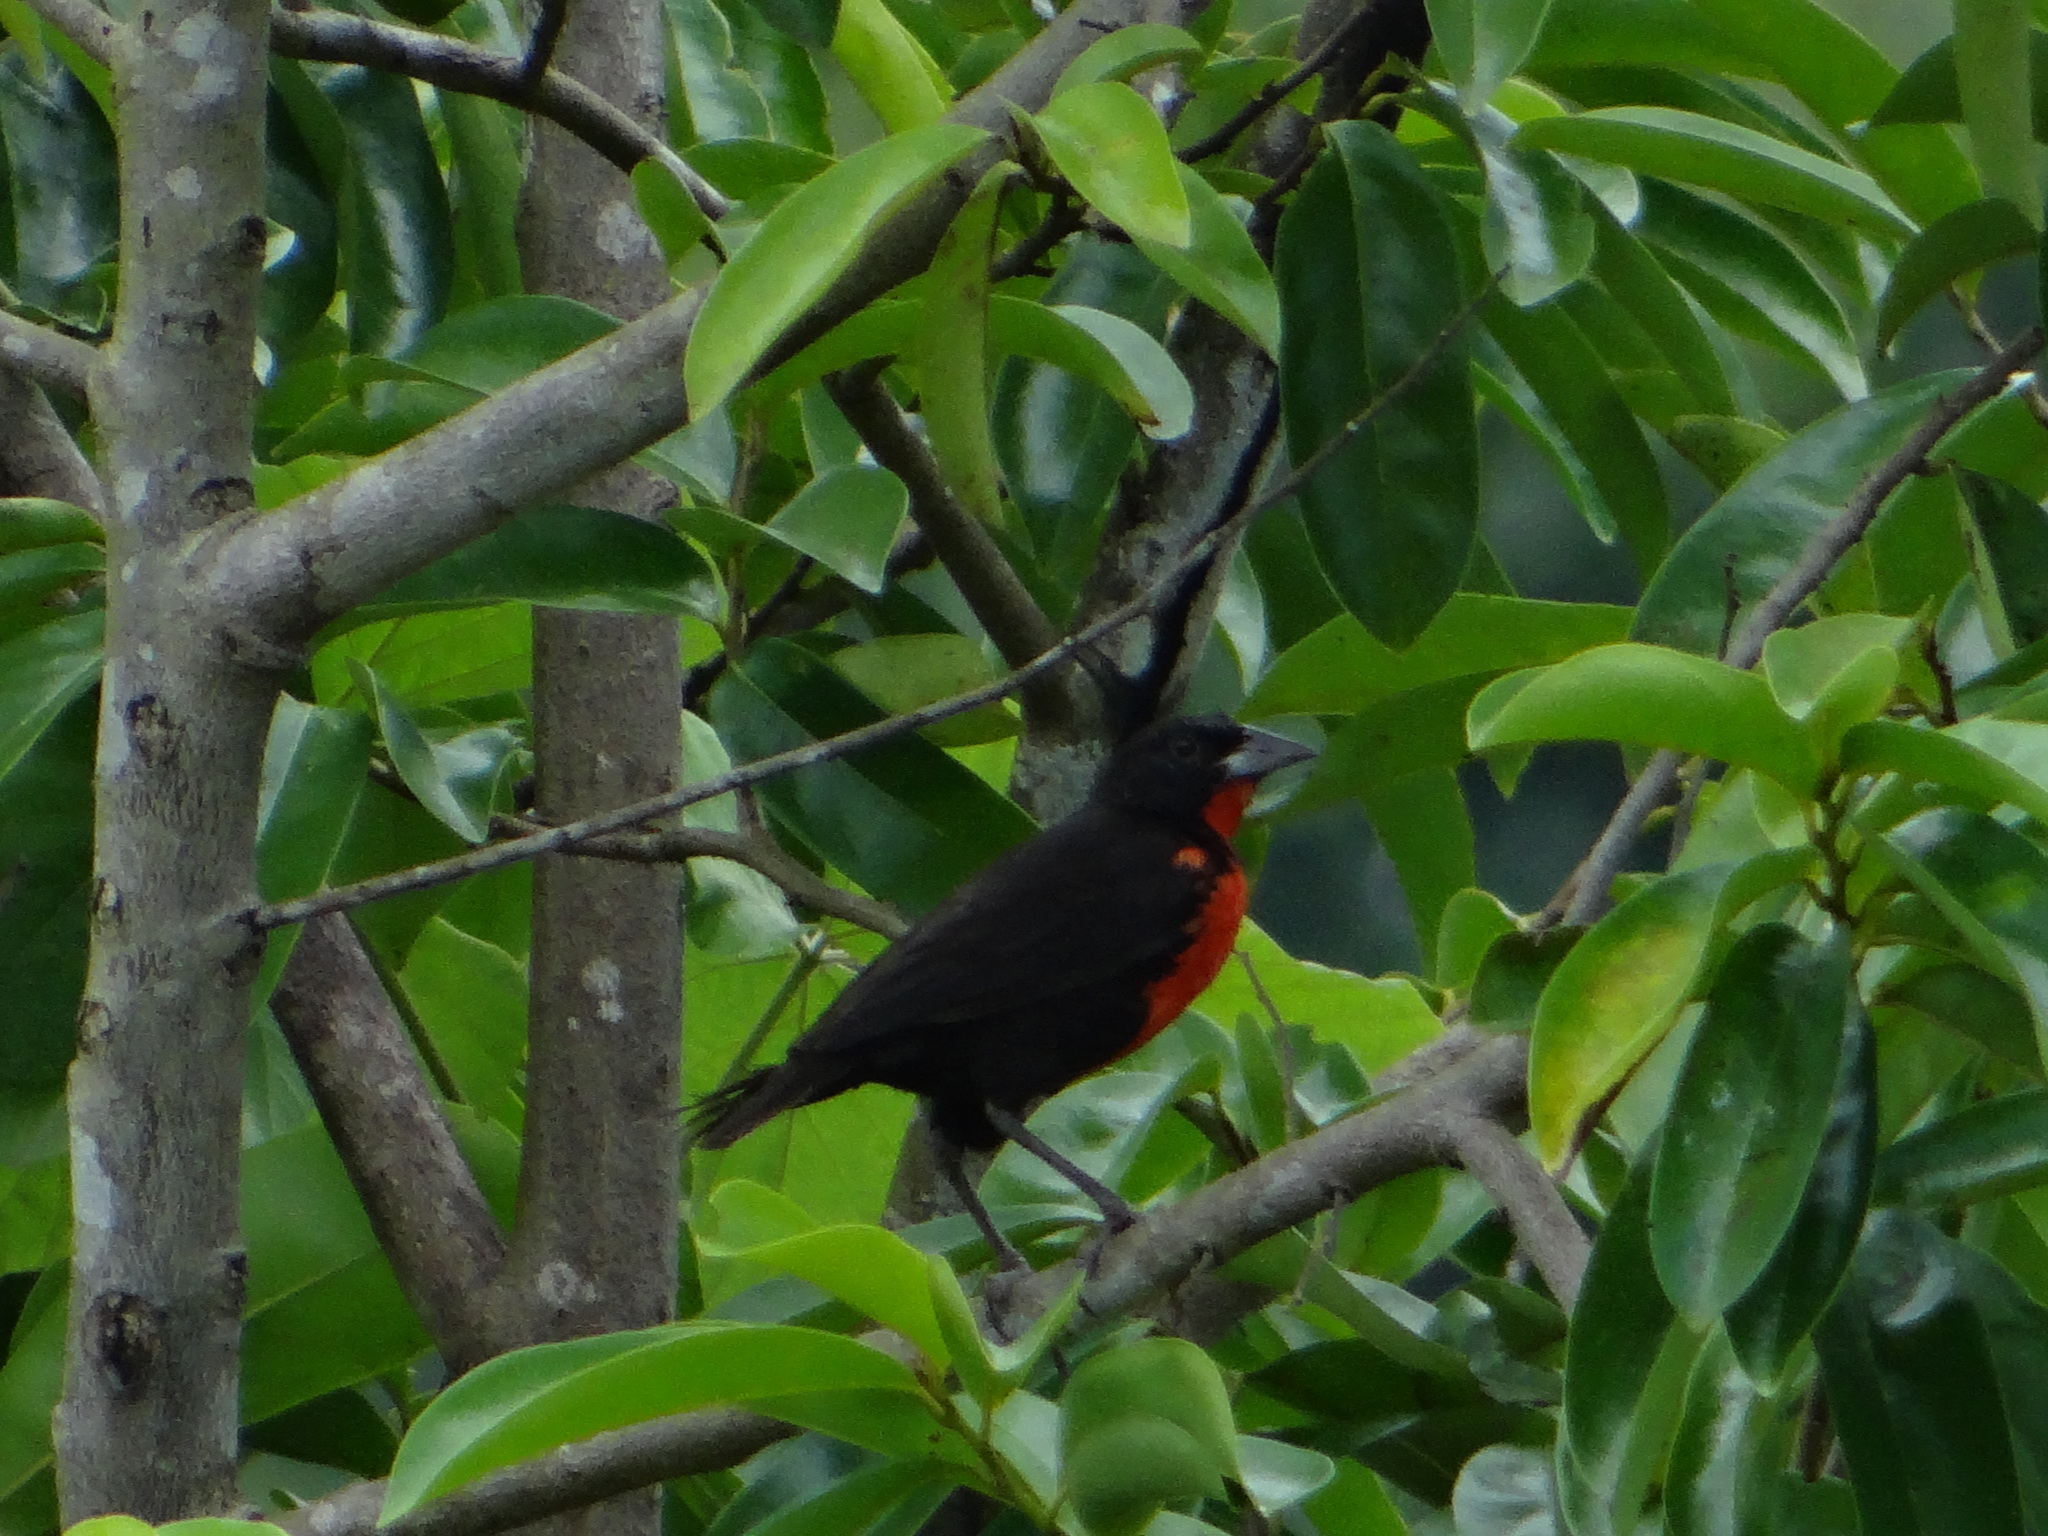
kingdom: Animalia
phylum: Chordata
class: Aves
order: Passeriformes
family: Icteridae
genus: Sturnella
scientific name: Sturnella militaris
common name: Red-breasted blackbird
